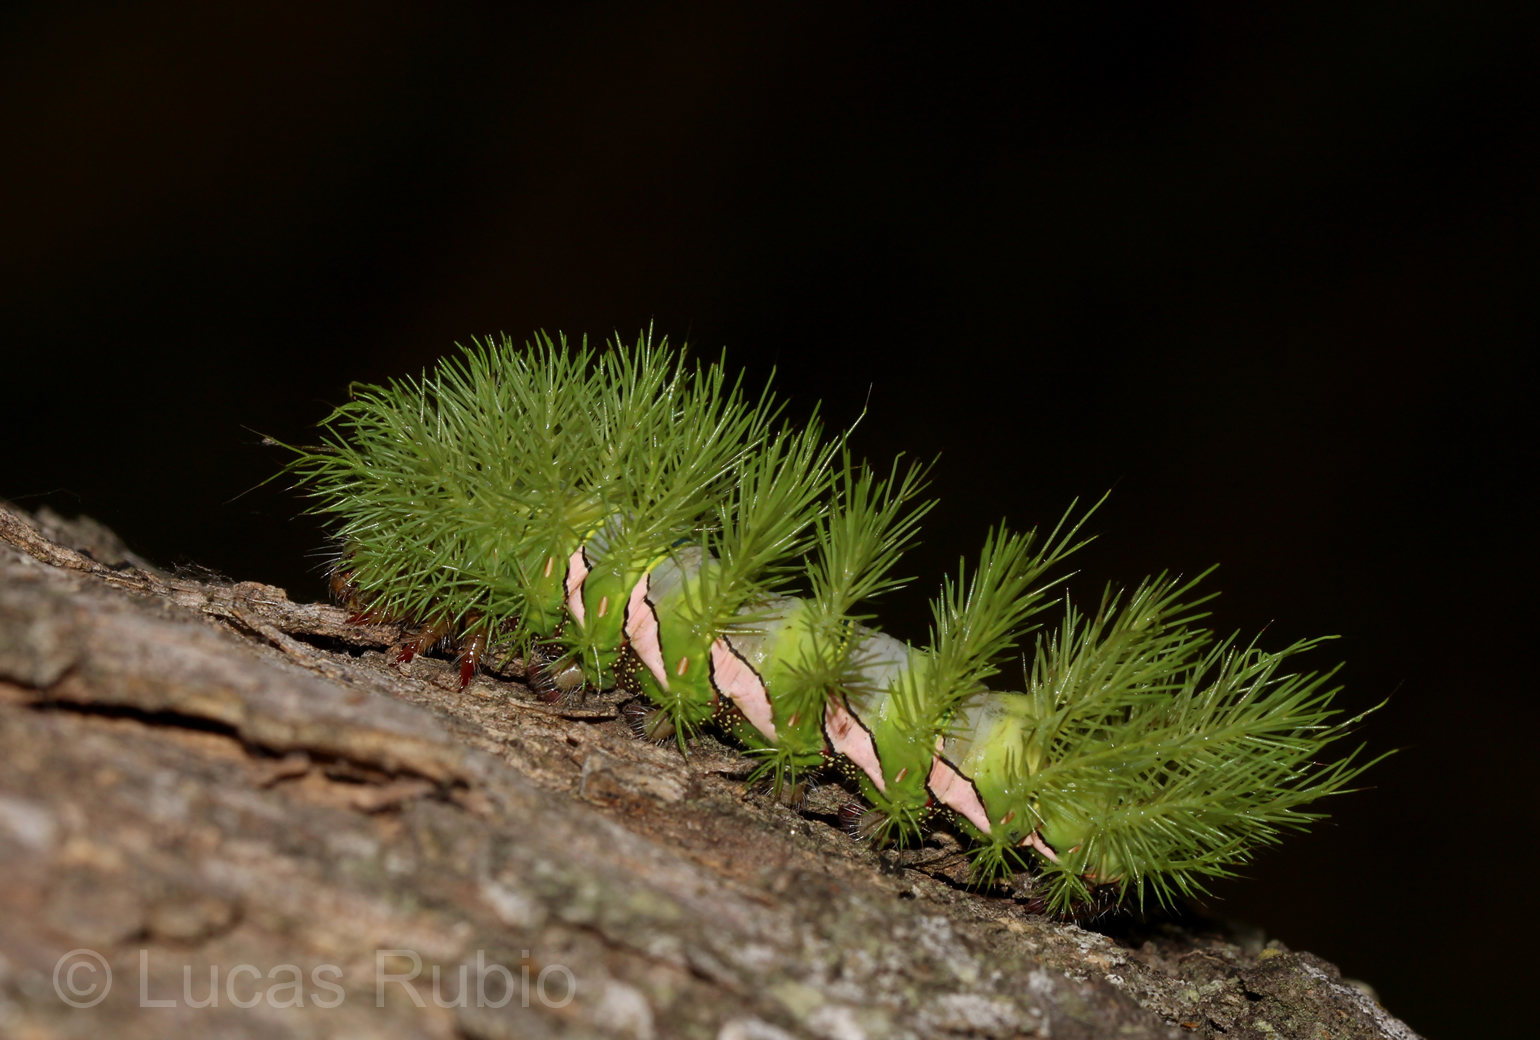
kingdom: Animalia
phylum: Arthropoda
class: Insecta
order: Lepidoptera
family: Saturniidae
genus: Automeris
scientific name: Automeris naranja
